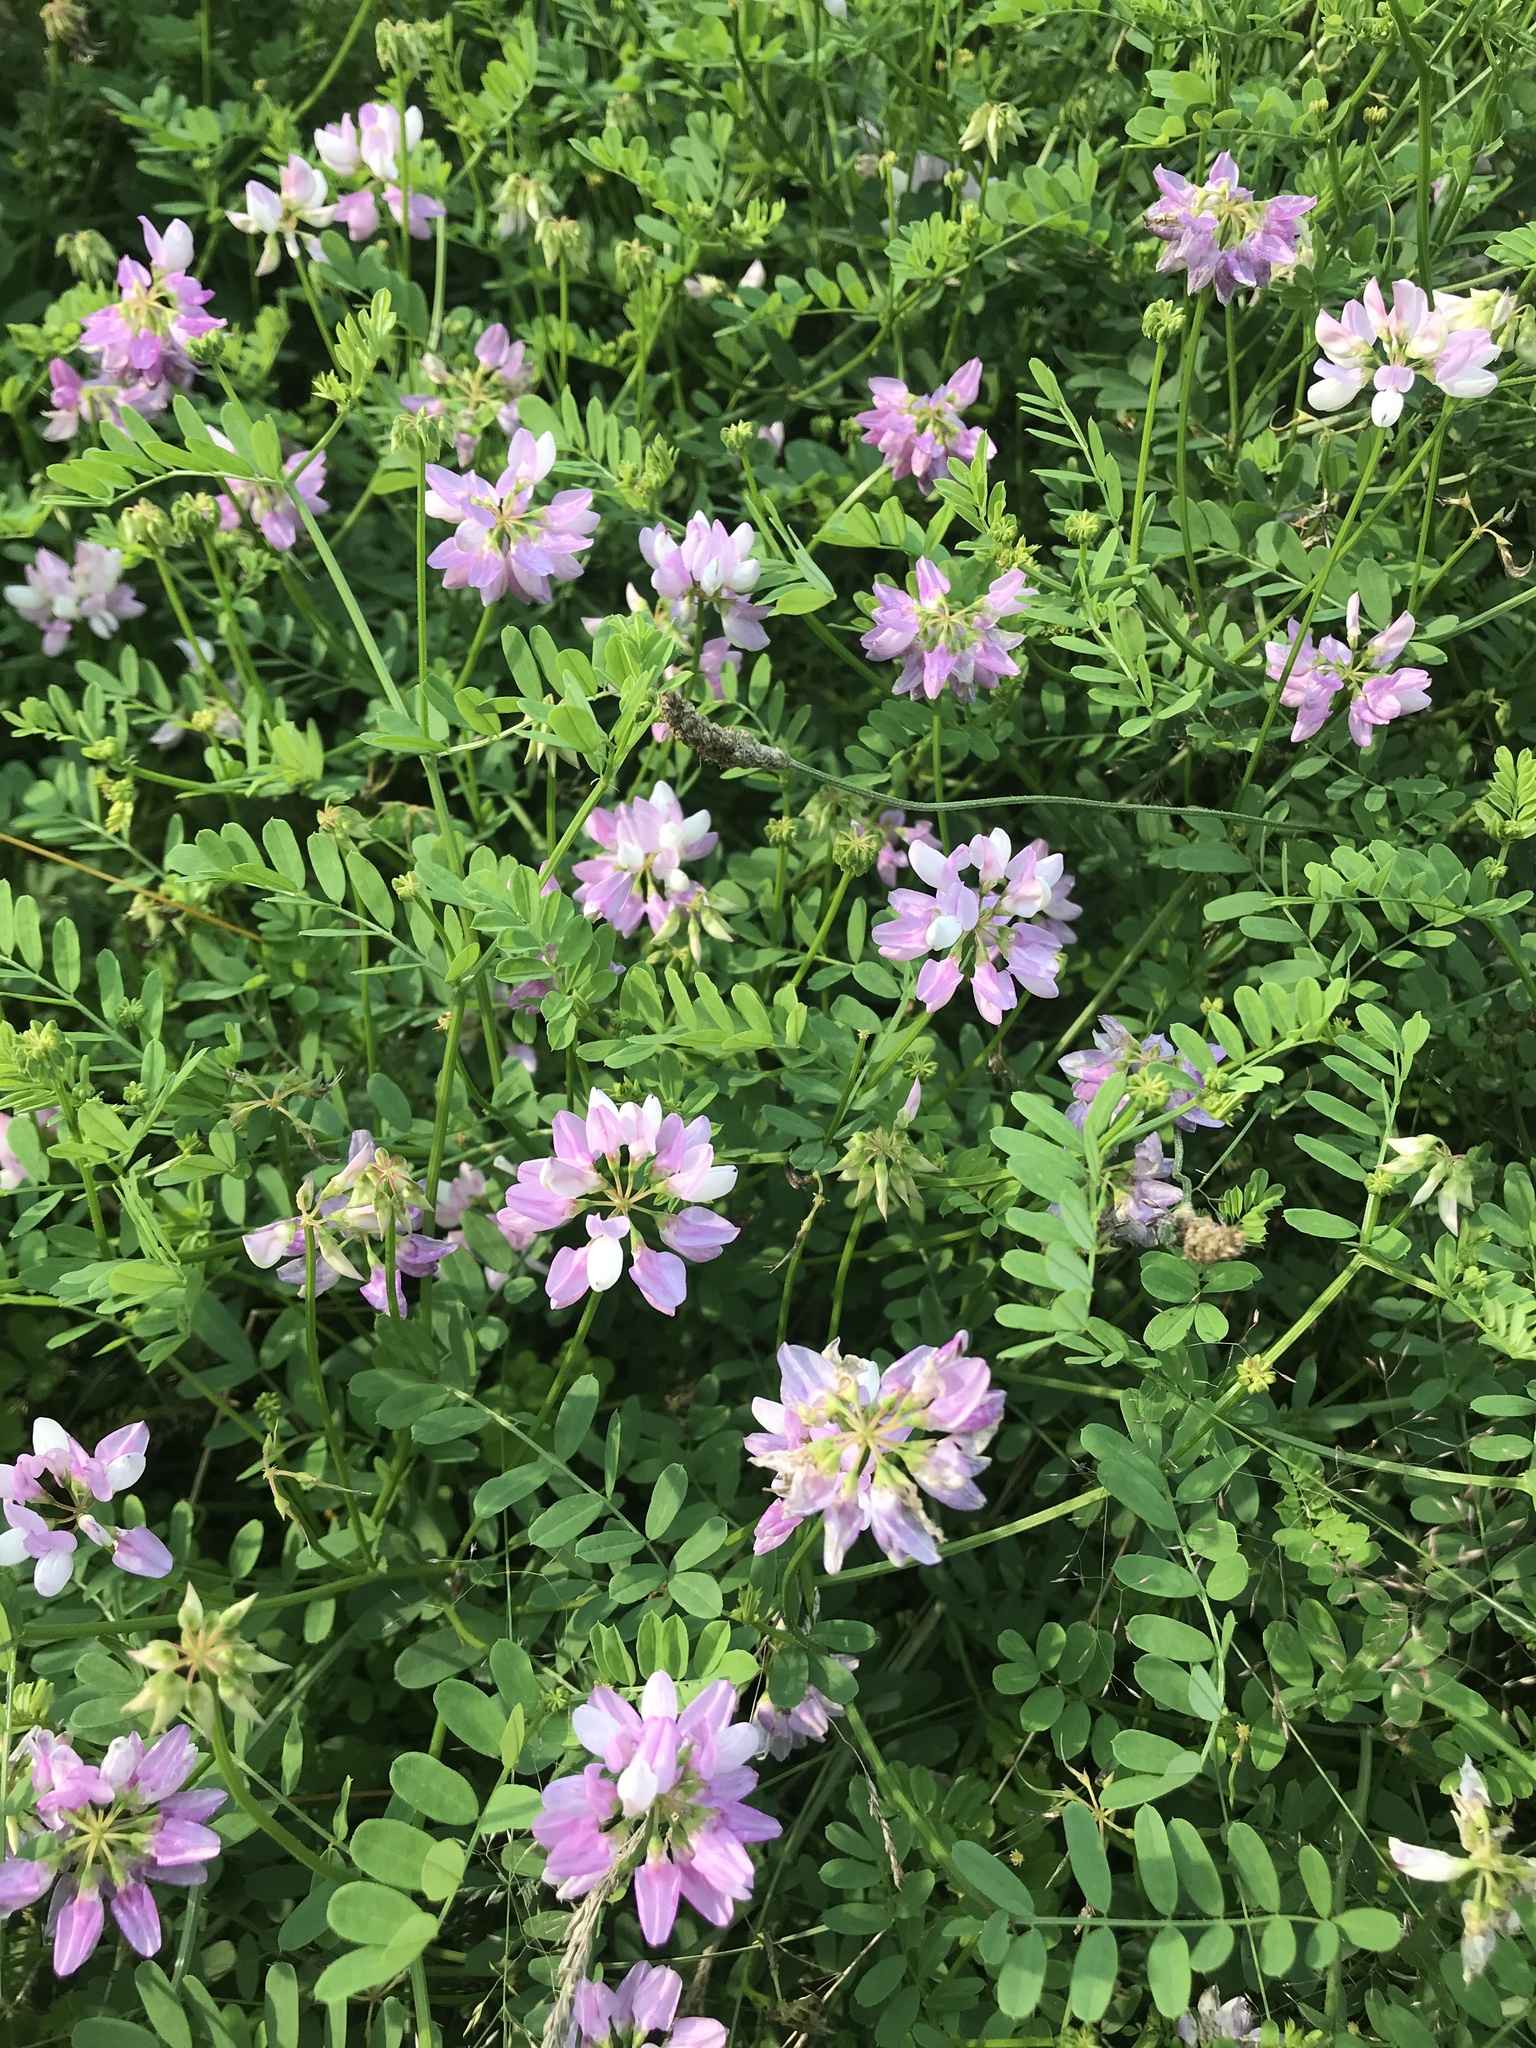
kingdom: Plantae
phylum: Tracheophyta
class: Magnoliopsida
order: Fabales
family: Fabaceae
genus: Coronilla
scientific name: Coronilla varia
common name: Crownvetch
